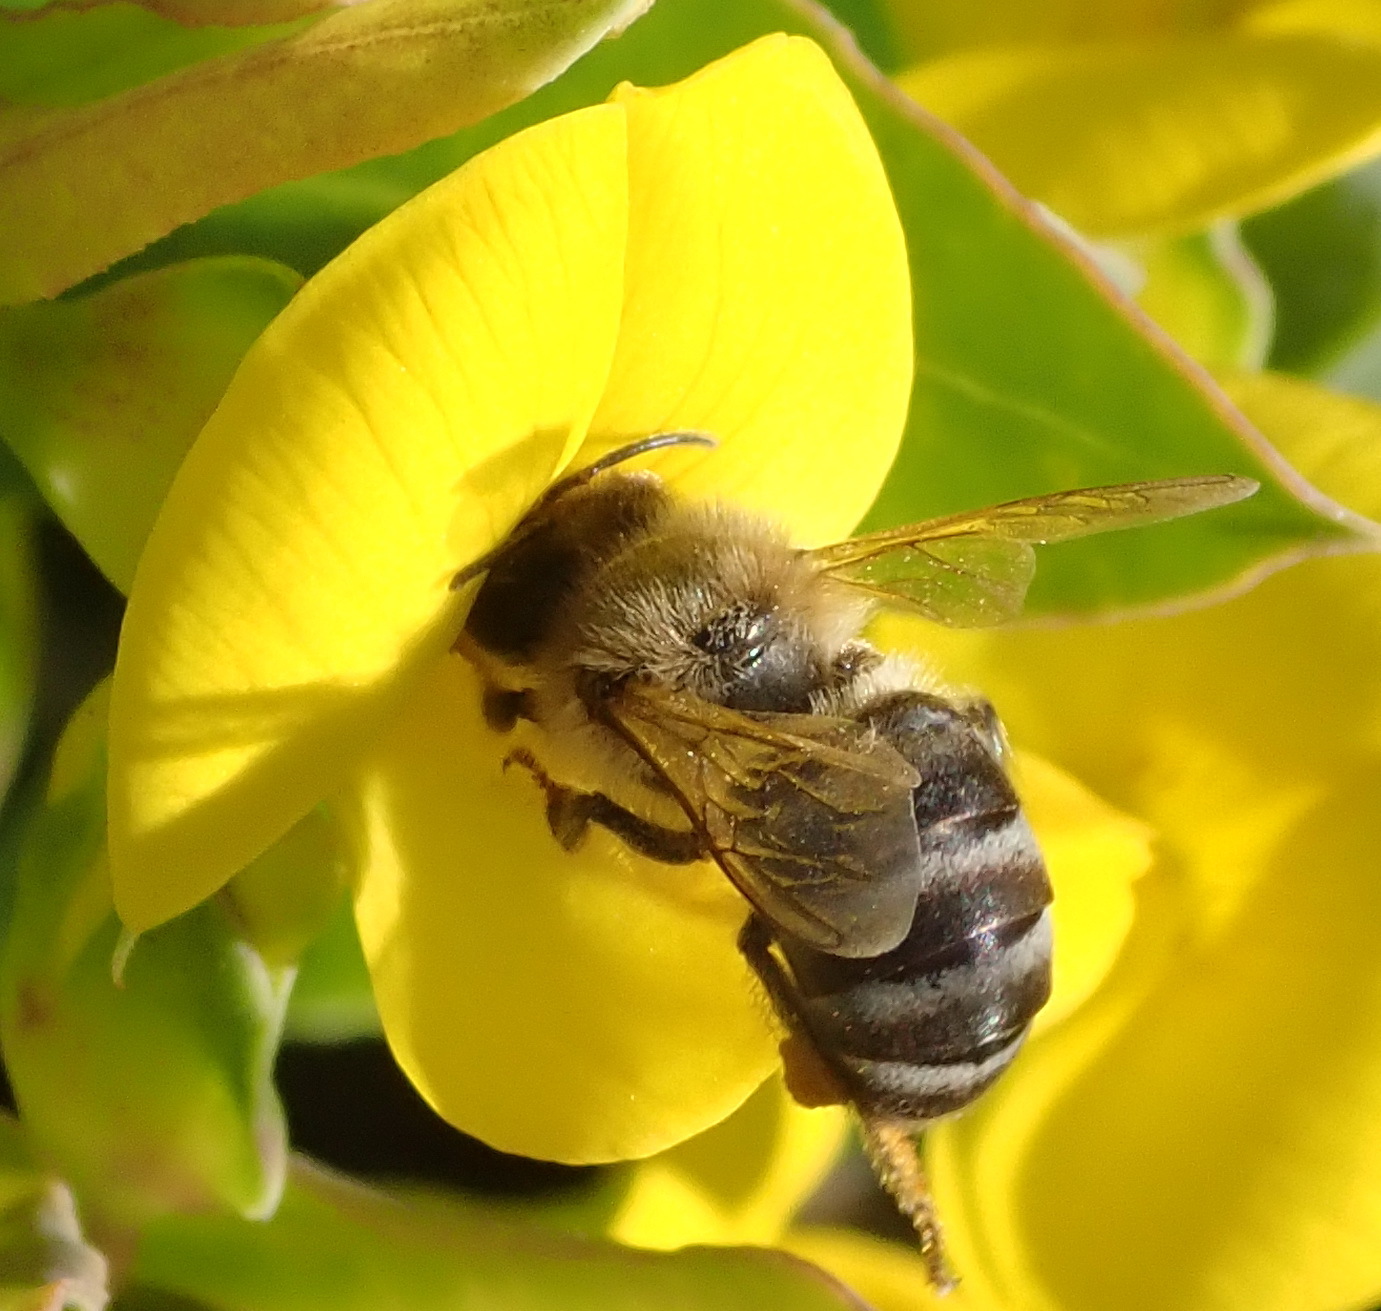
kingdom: Animalia
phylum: Arthropoda
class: Insecta
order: Hymenoptera
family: Apidae
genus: Apis
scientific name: Apis mellifera
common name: Honey bee
